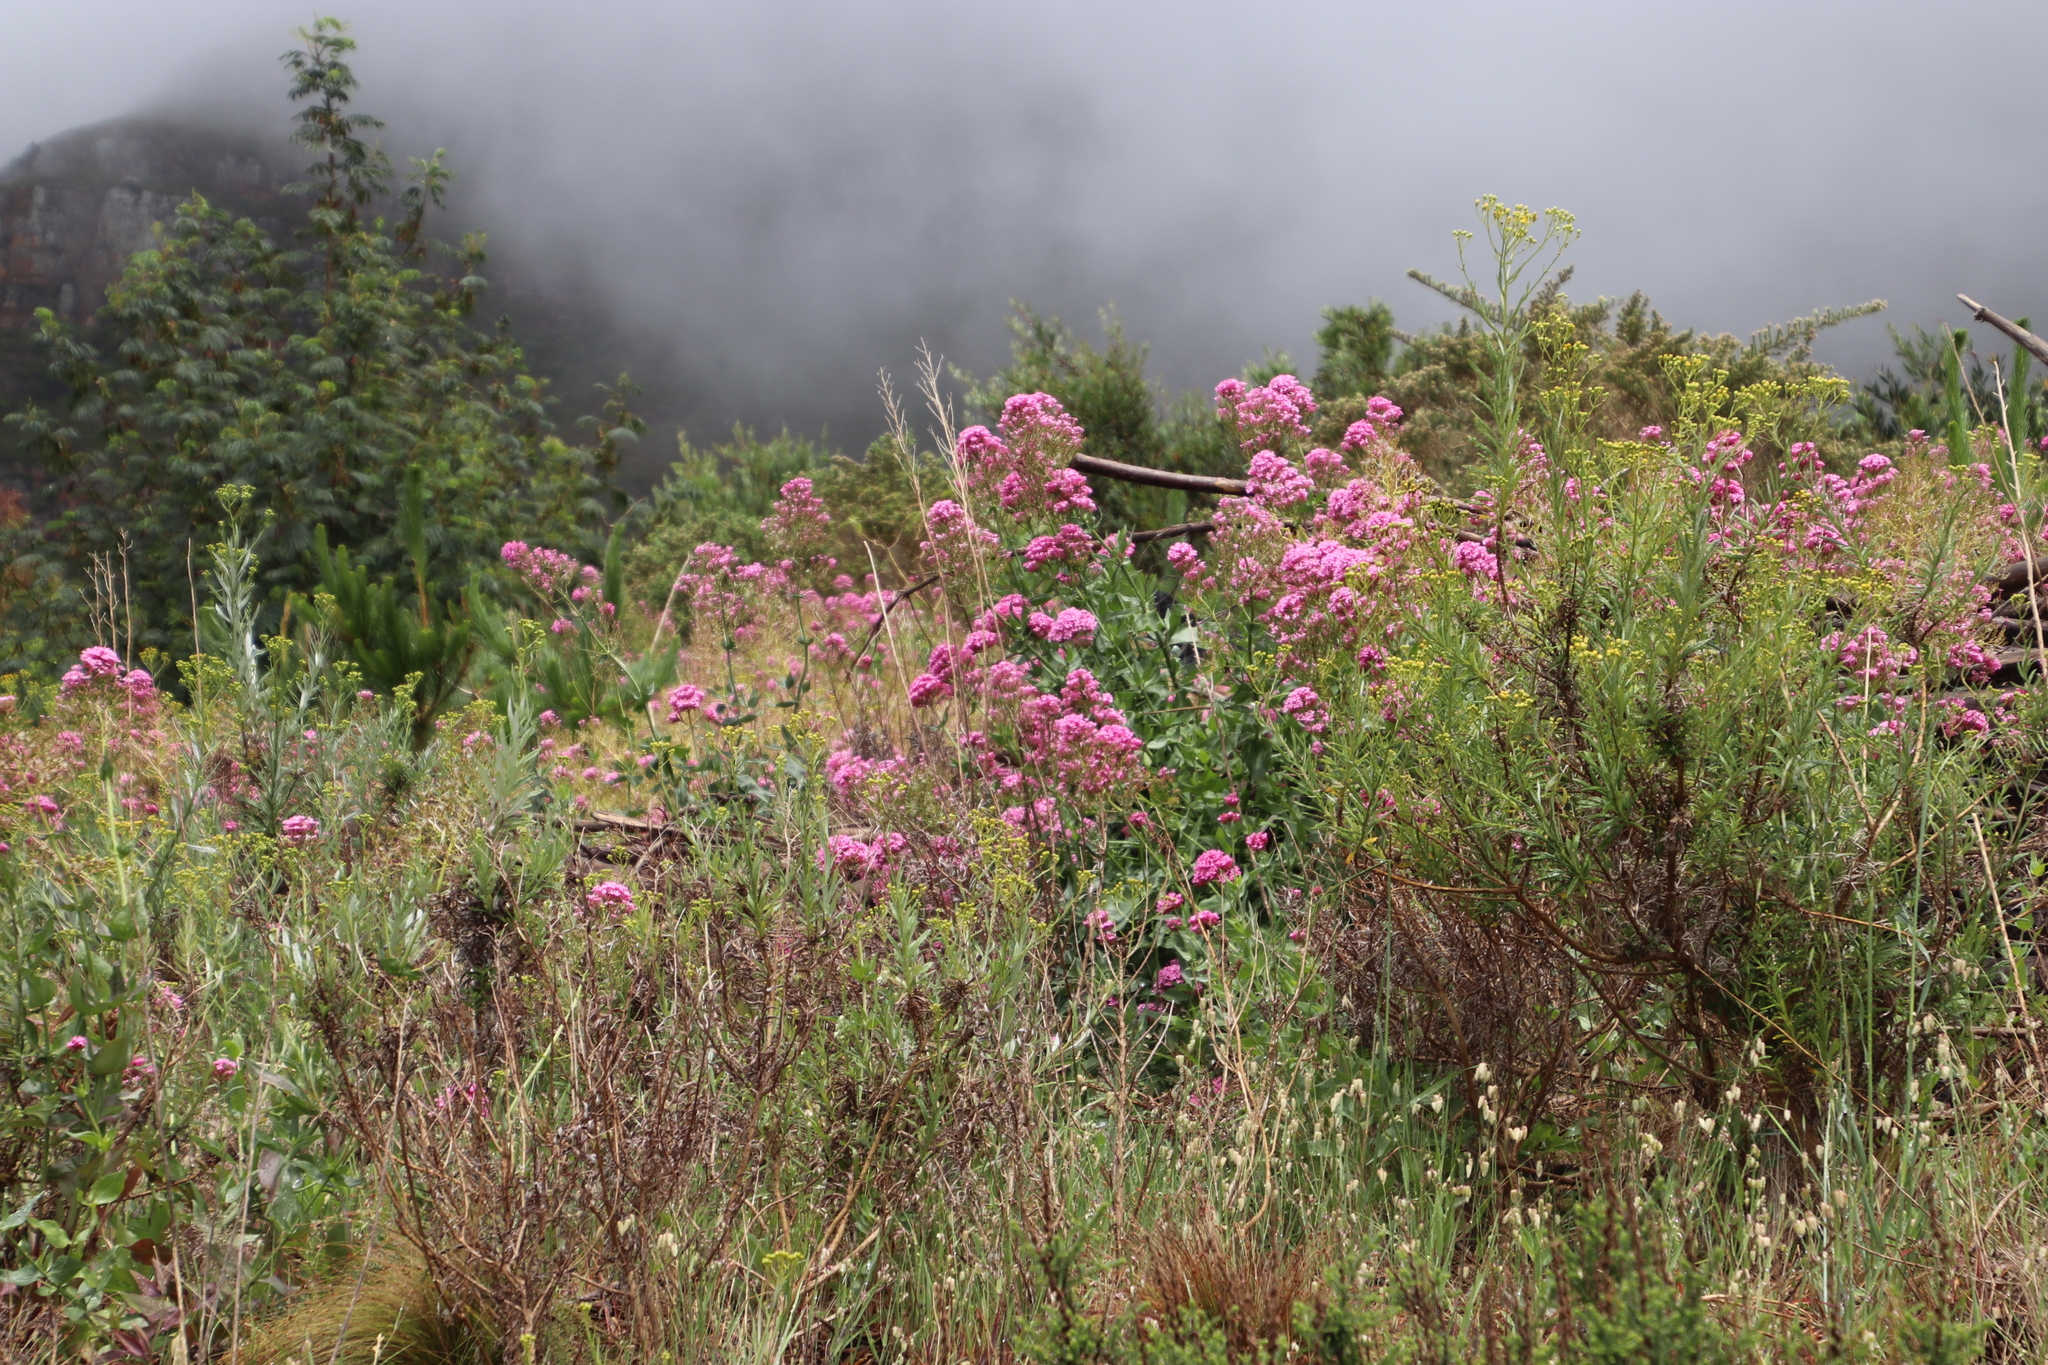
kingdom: Plantae
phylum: Tracheophyta
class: Magnoliopsida
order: Dipsacales
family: Caprifoliaceae
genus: Centranthus
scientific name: Centranthus ruber
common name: Red valerian
